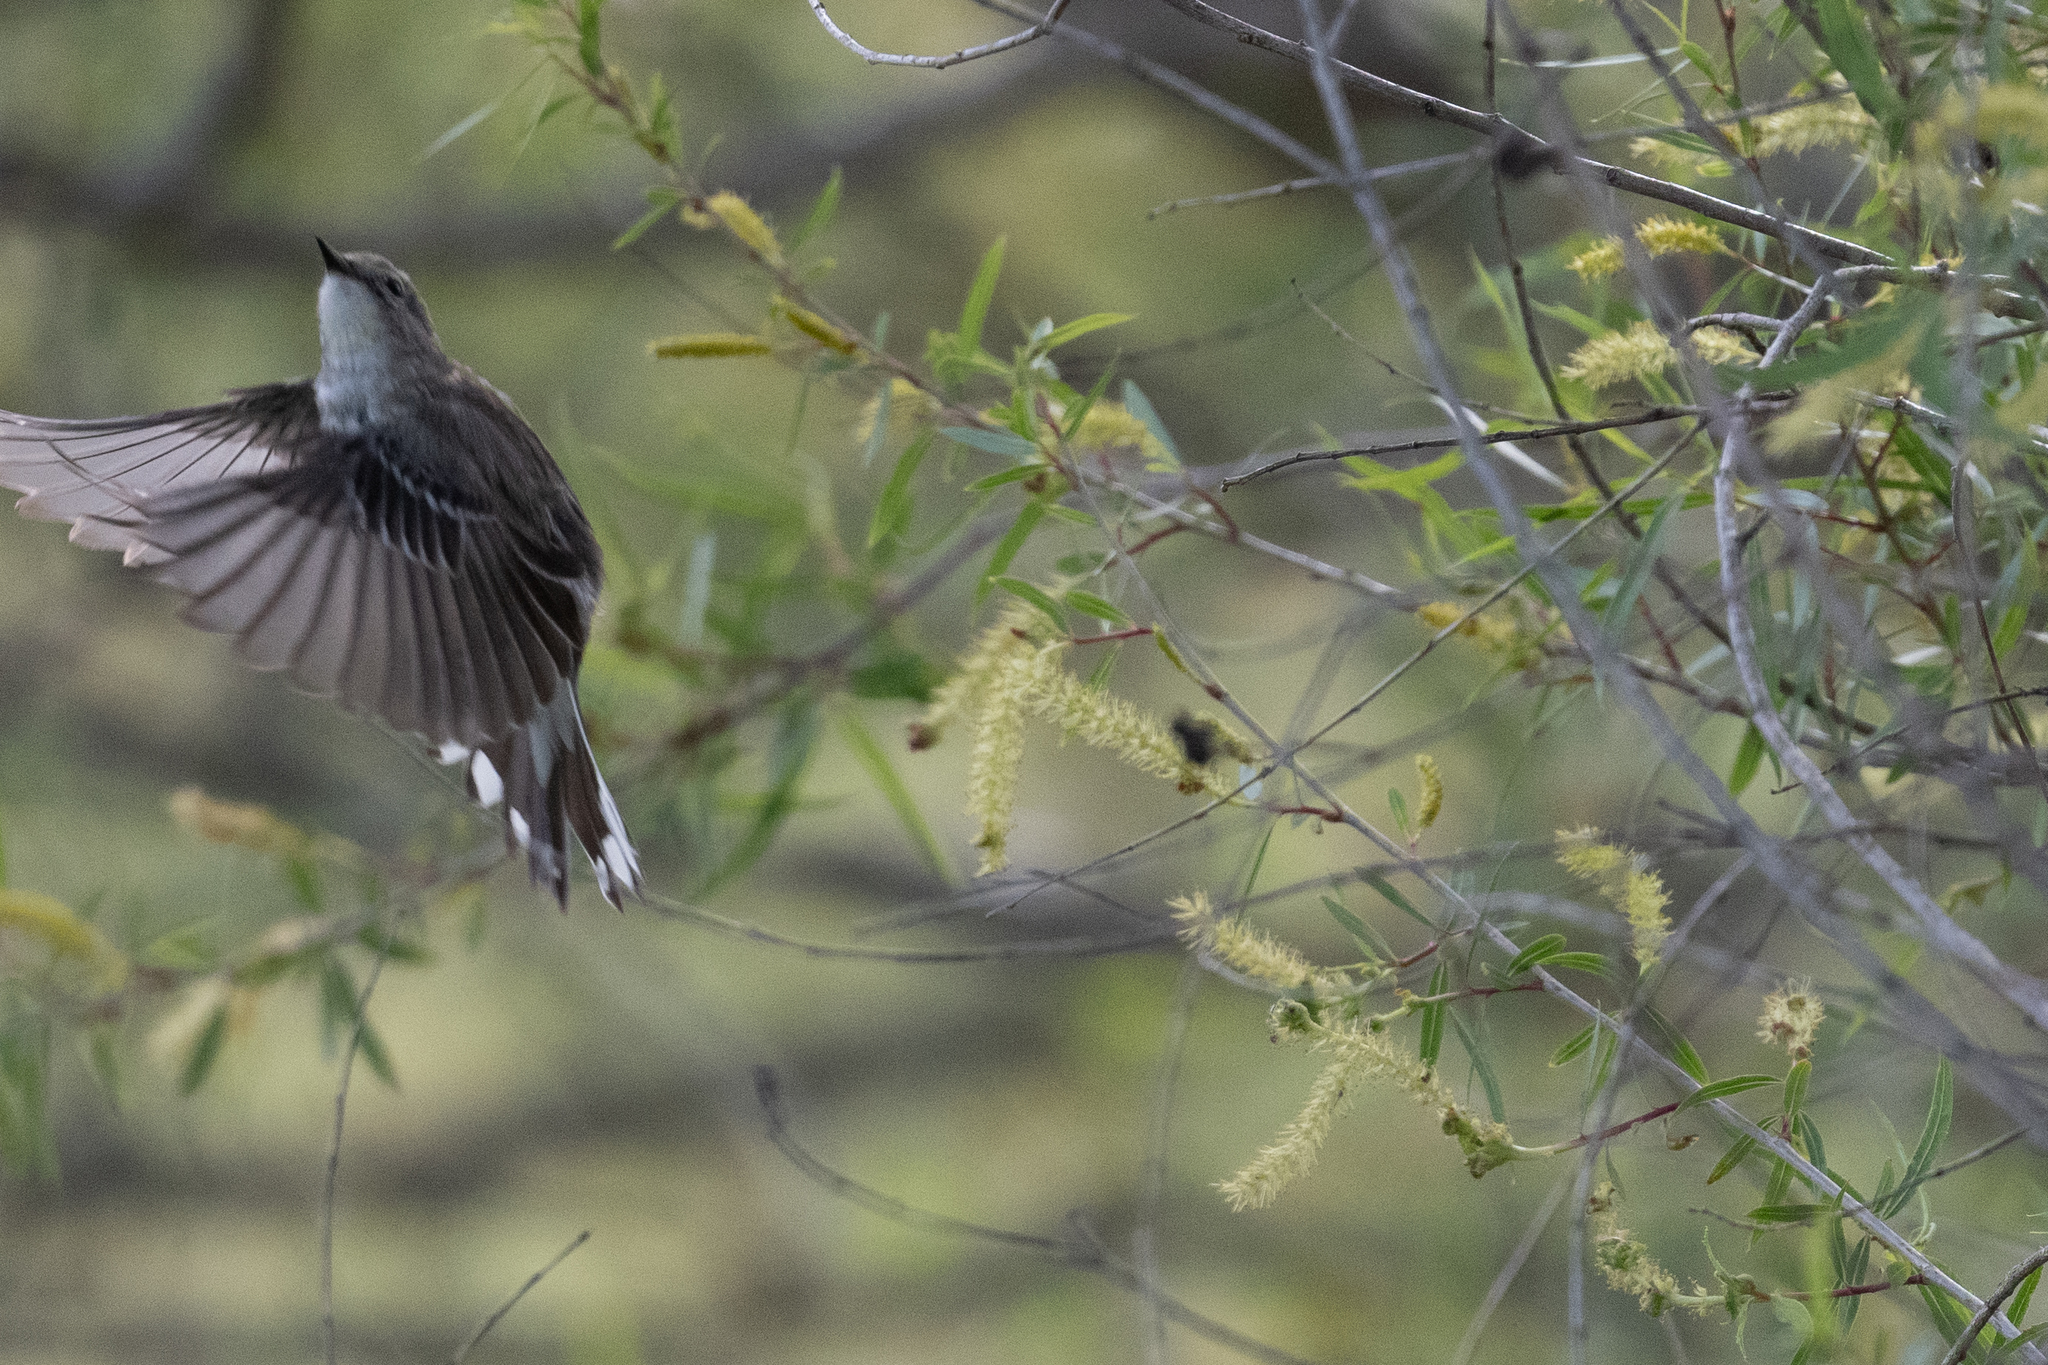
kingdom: Animalia
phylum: Chordata
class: Aves
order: Passeriformes
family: Parulidae
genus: Setophaga
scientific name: Setophaga coronata
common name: Myrtle warbler
